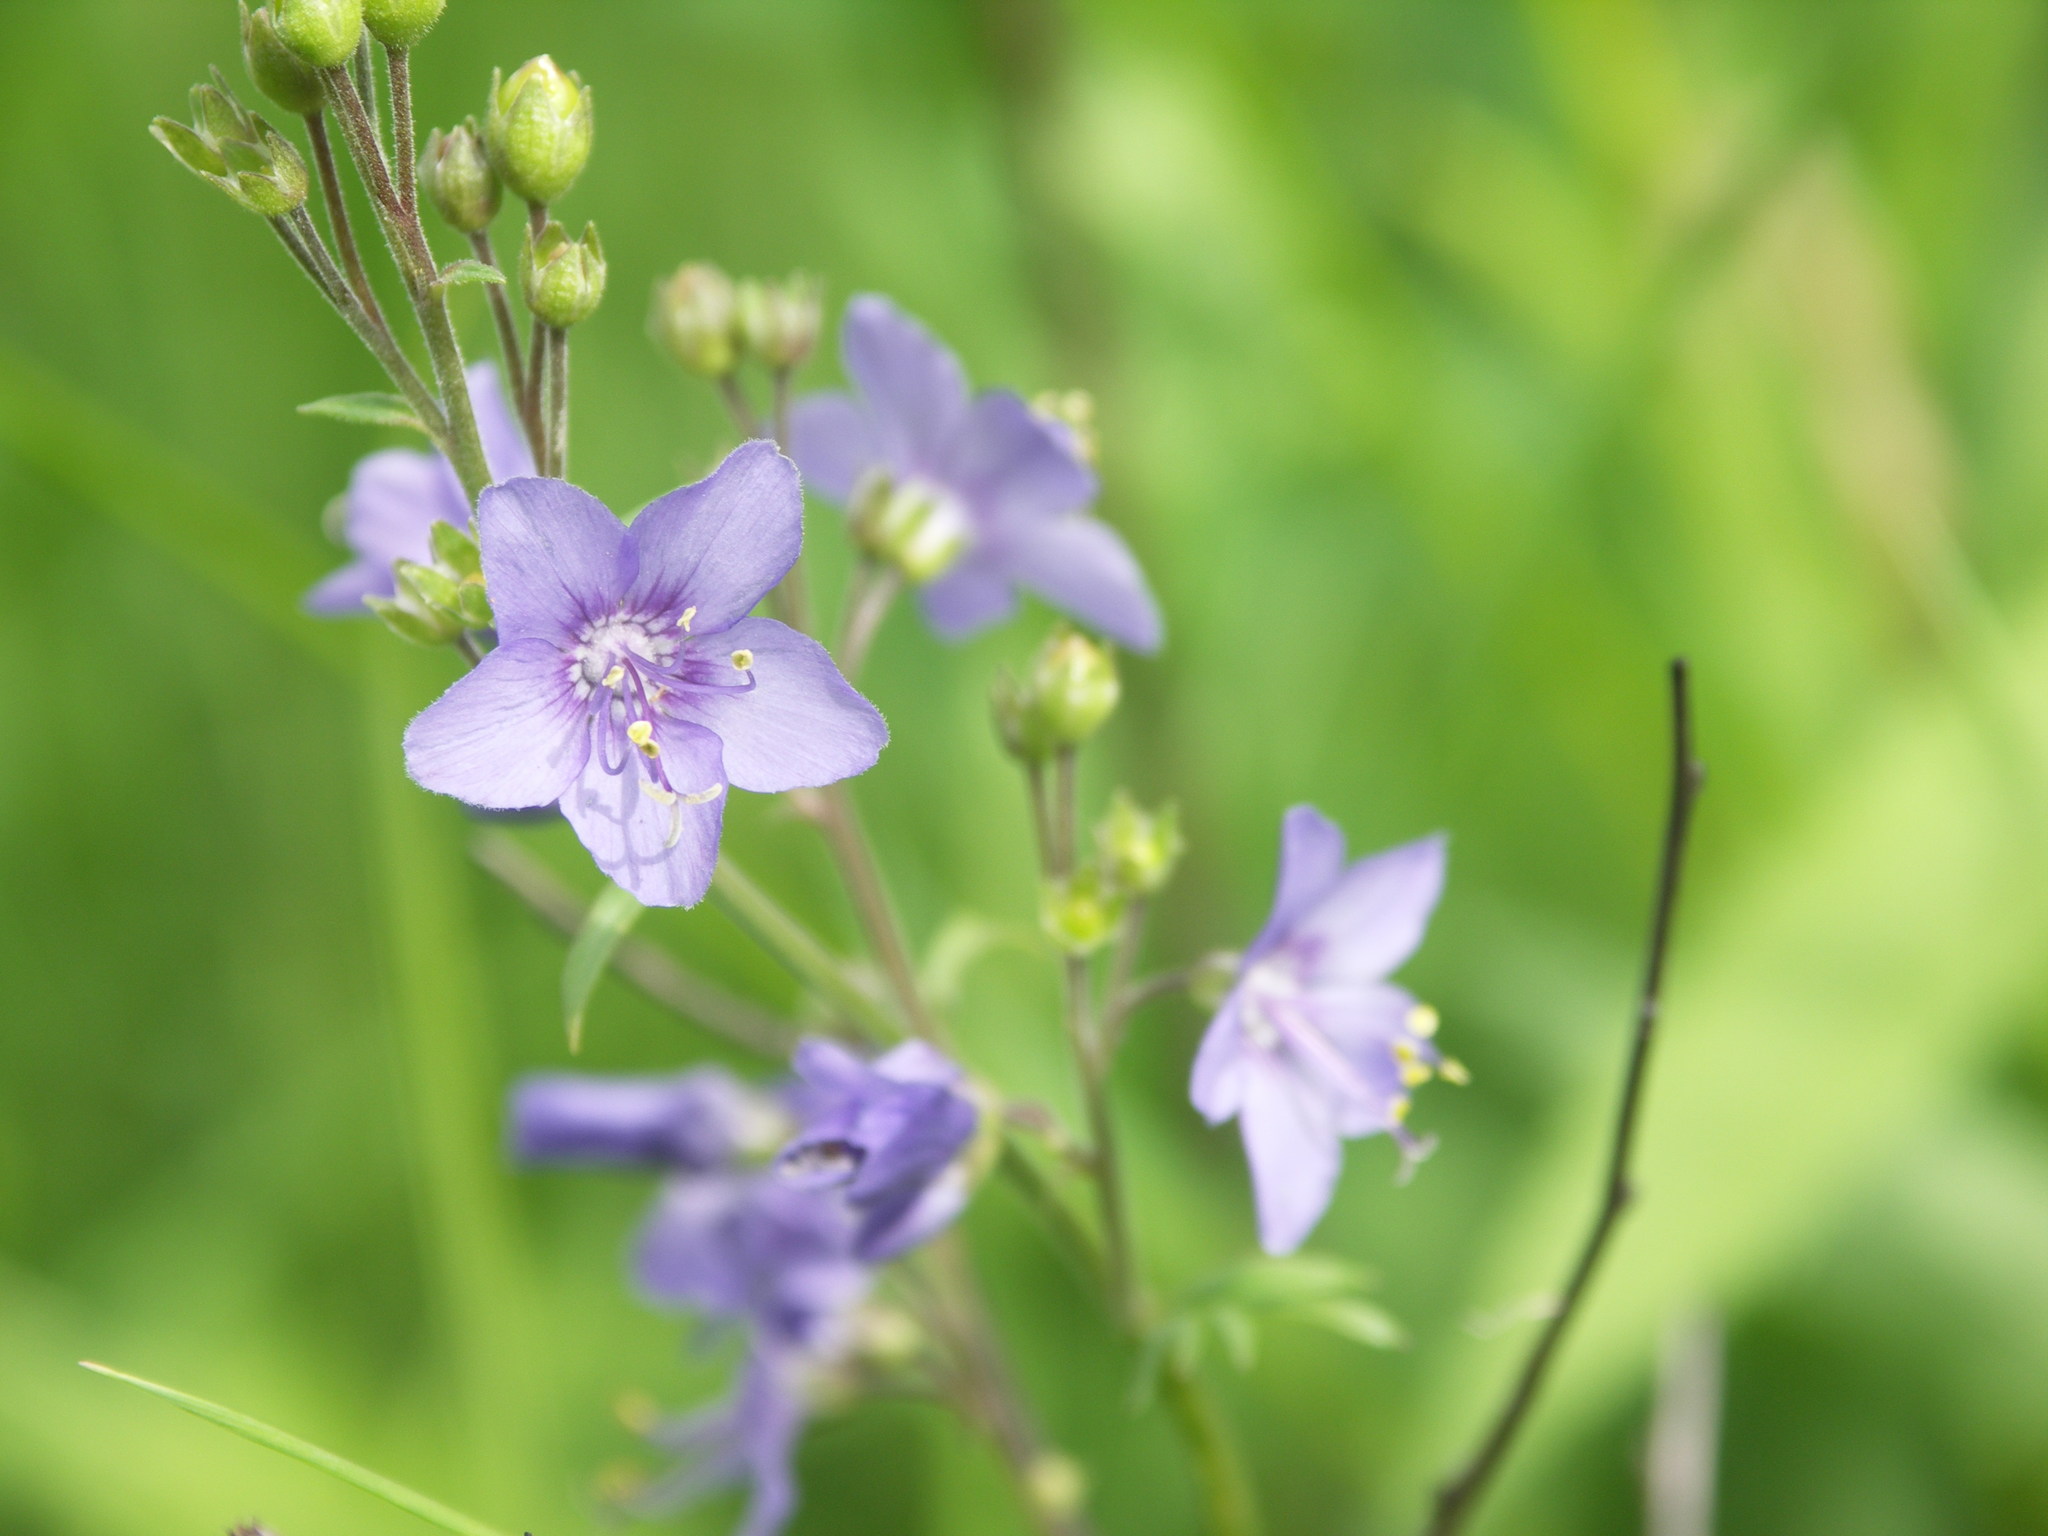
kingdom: Plantae
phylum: Tracheophyta
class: Magnoliopsida
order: Ericales
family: Polemoniaceae
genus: Polemonium
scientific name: Polemonium acutiflorum
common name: Tall jacob's-ladder
